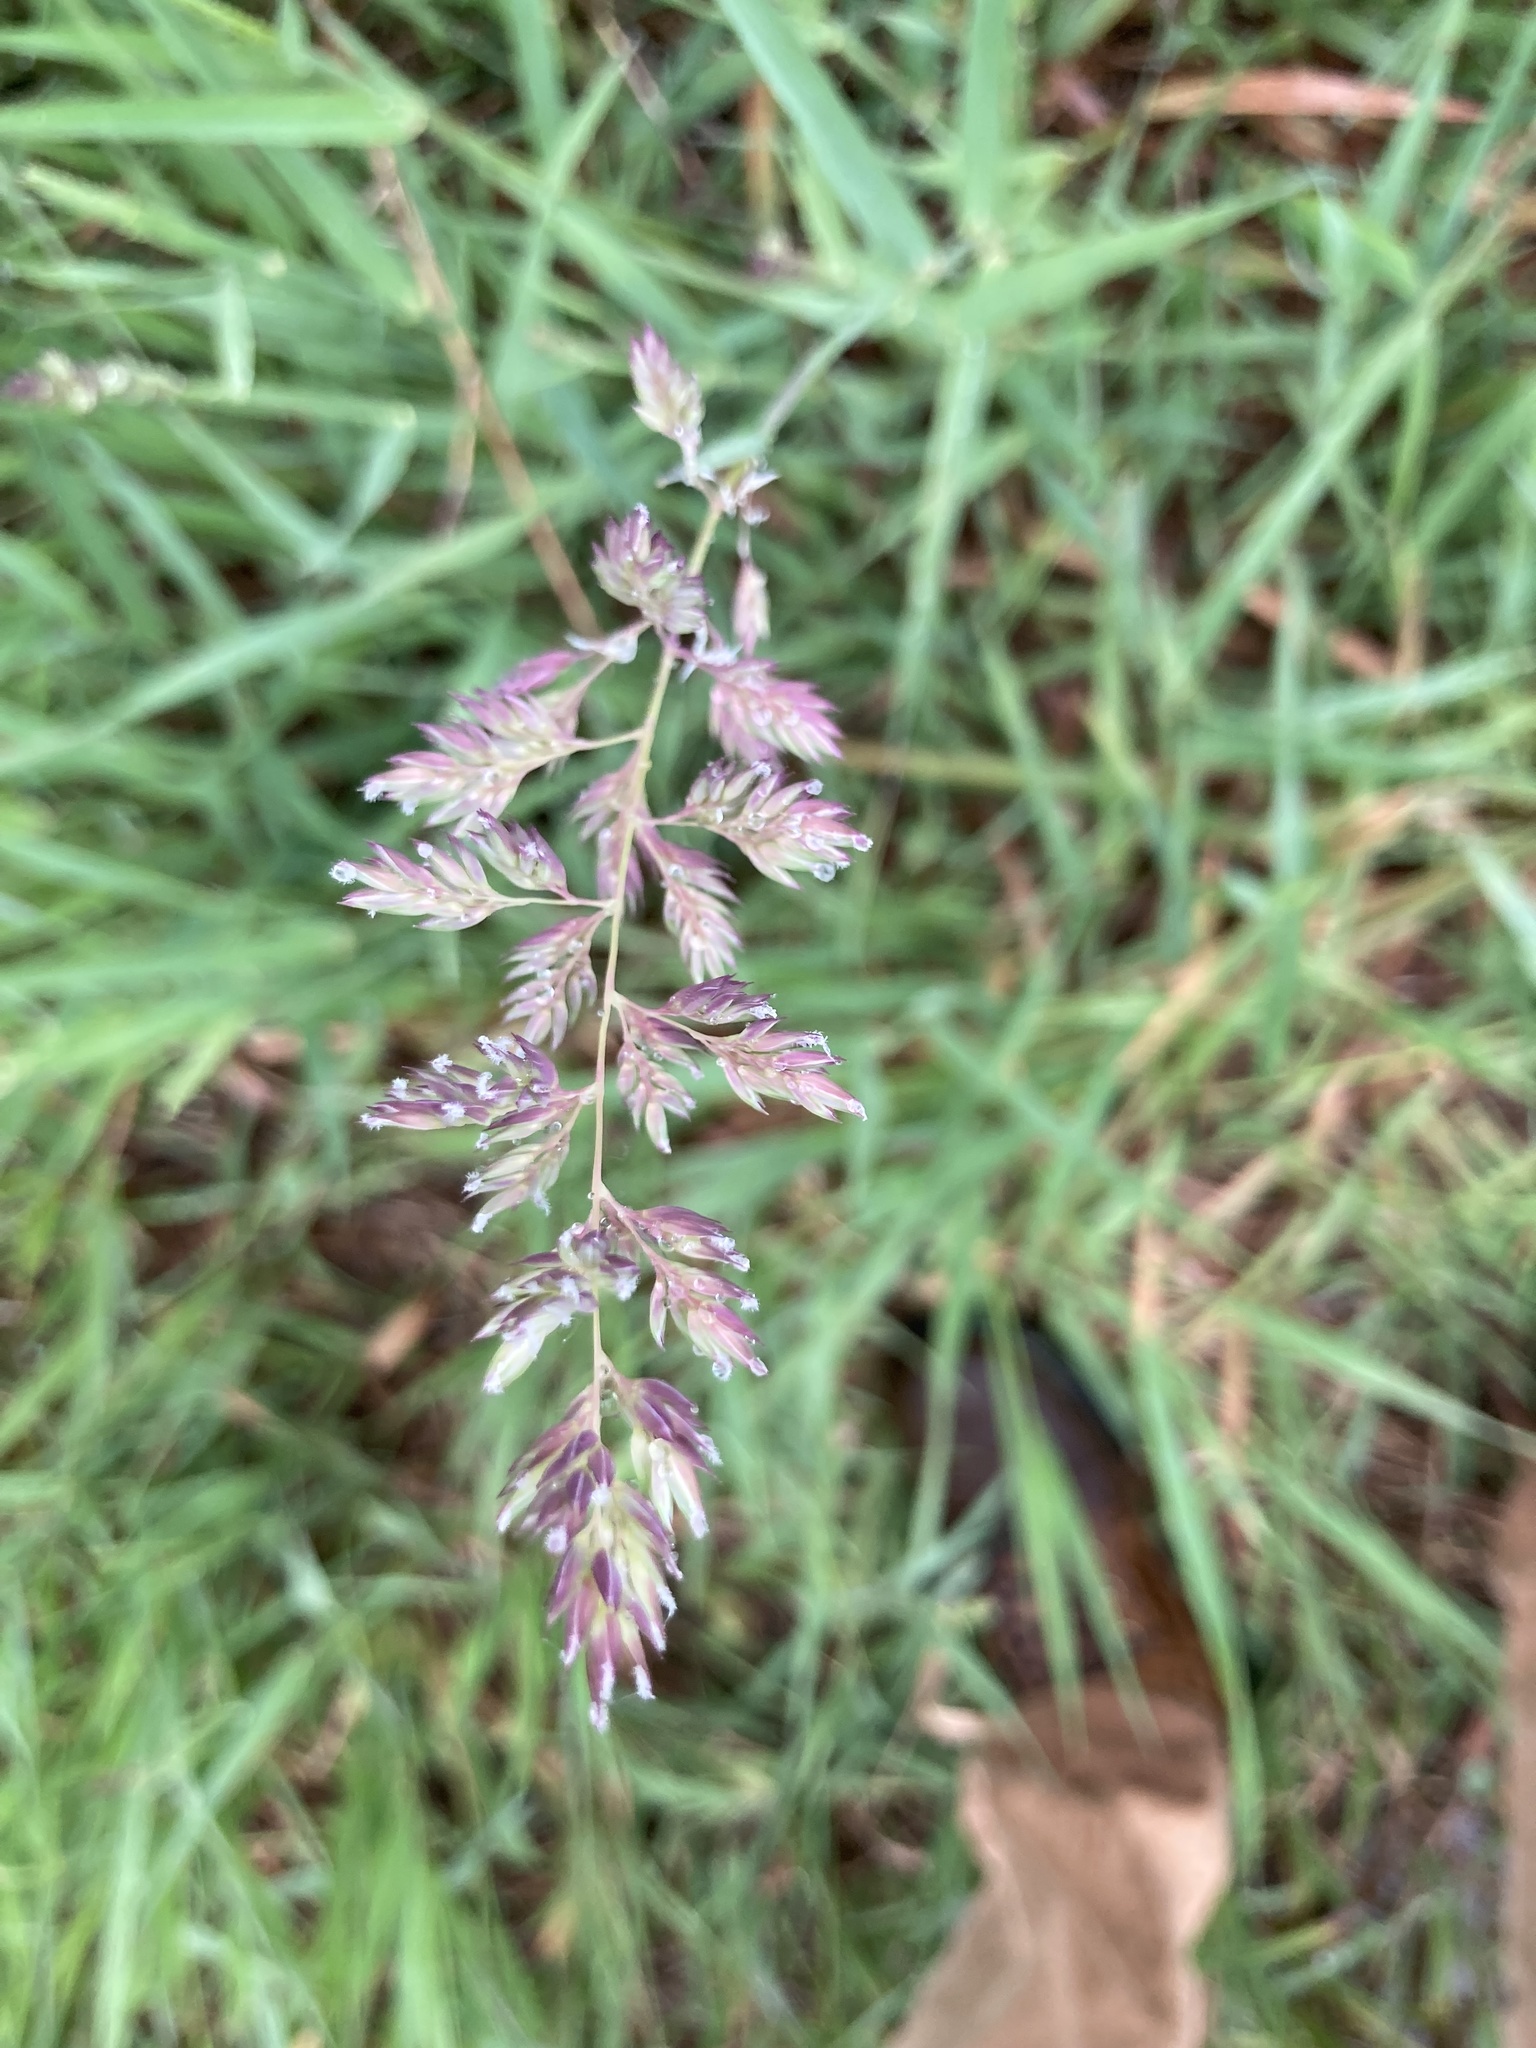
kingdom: Plantae
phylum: Tracheophyta
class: Liliopsida
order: Poales
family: Poaceae
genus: Phalaris
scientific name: Phalaris arundinacea
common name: Reed canary-grass
